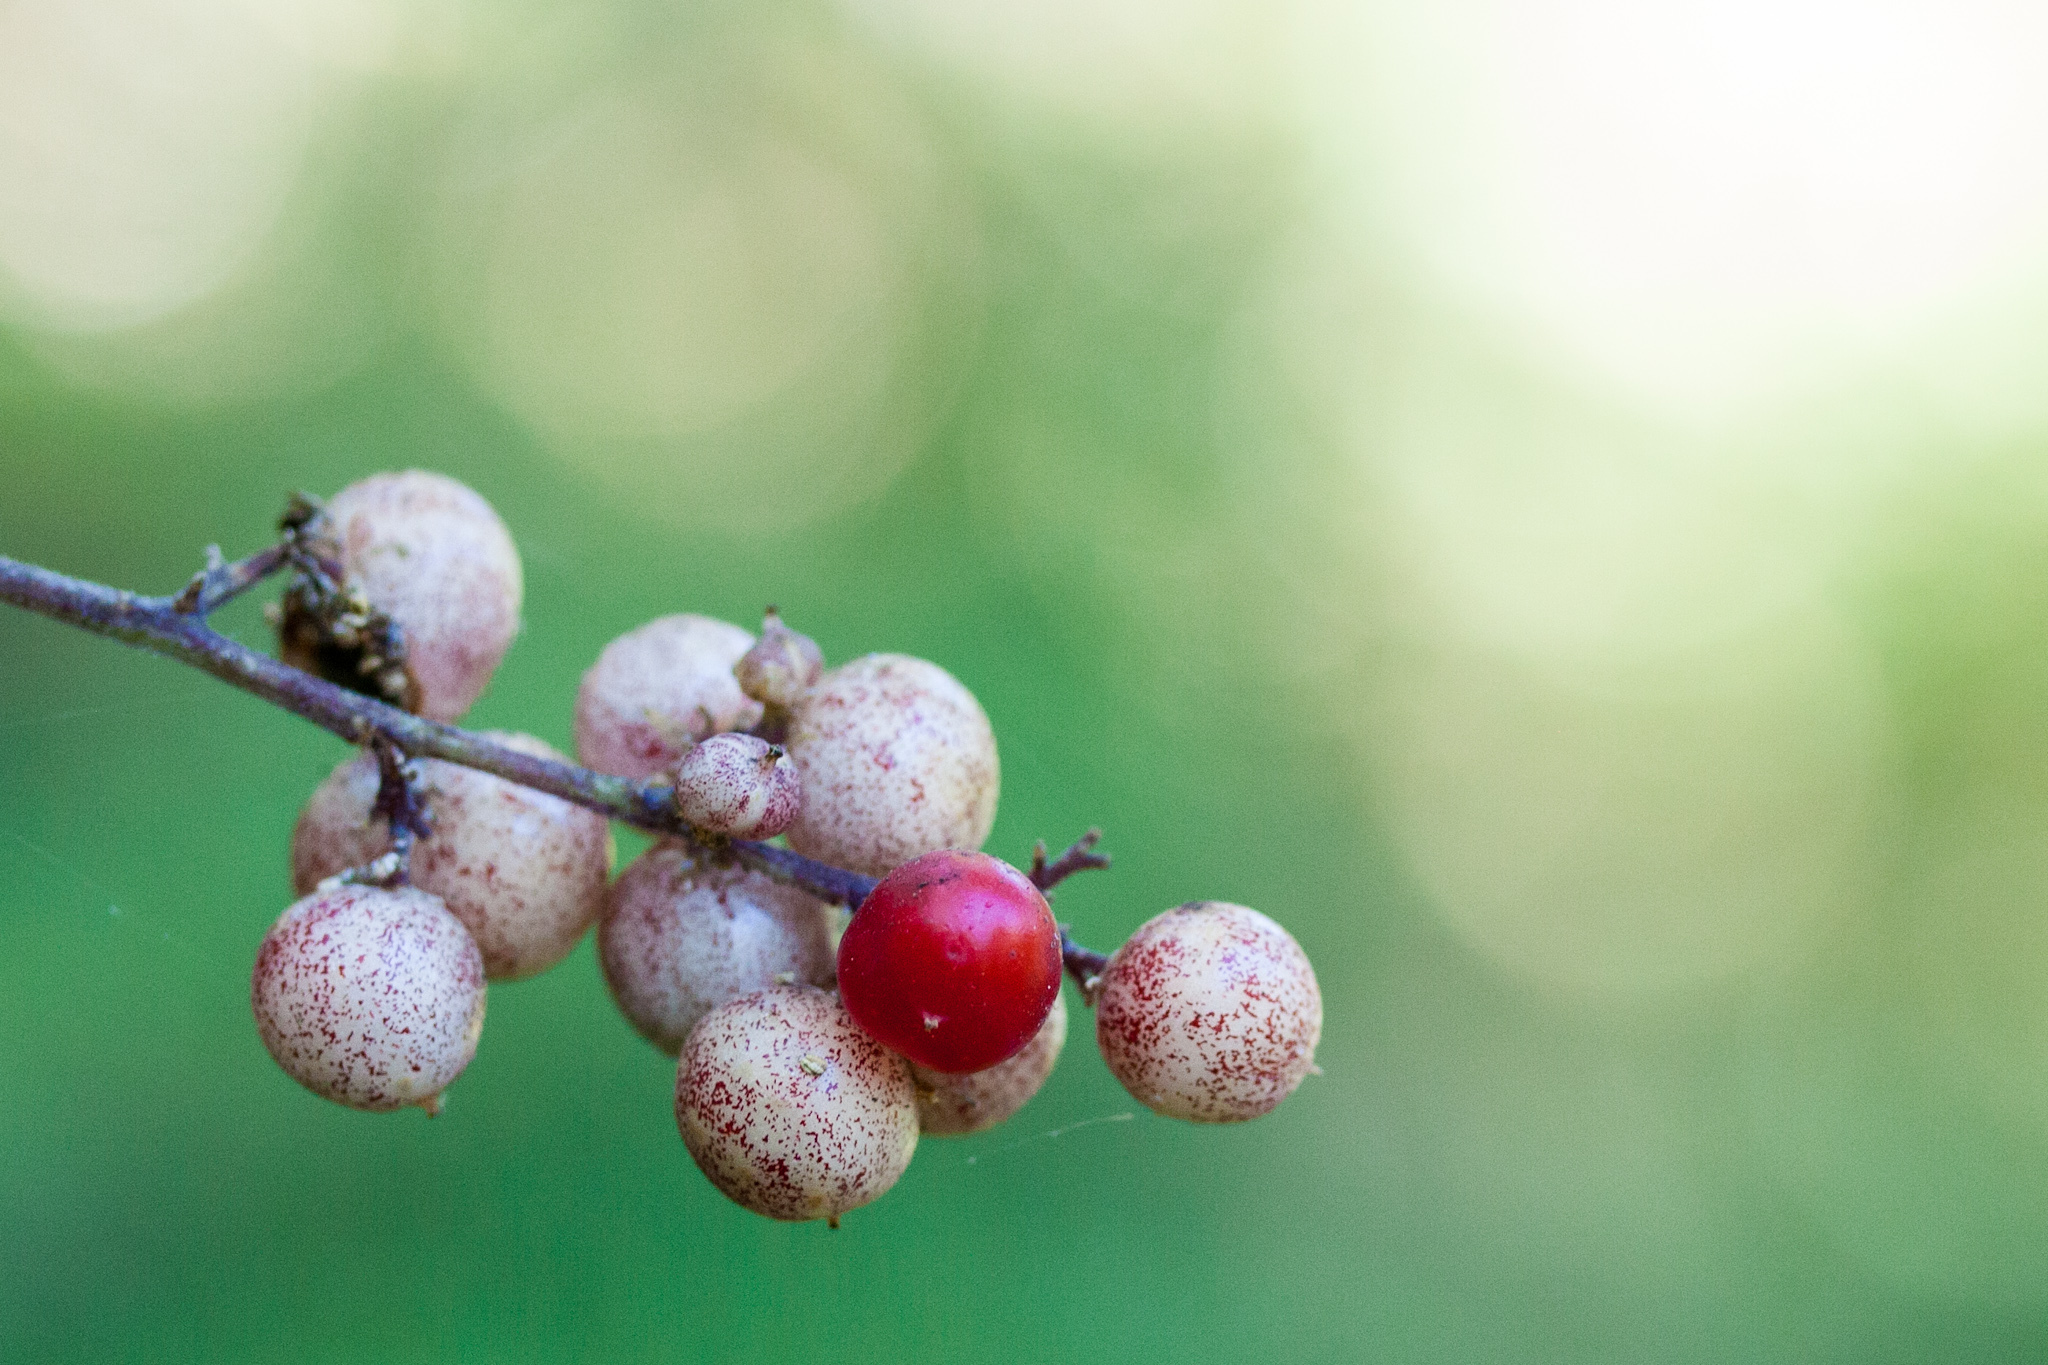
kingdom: Plantae
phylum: Tracheophyta
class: Liliopsida
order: Asparagales
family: Asparagaceae
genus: Maianthemum
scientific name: Maianthemum racemosum
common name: False spikenard
